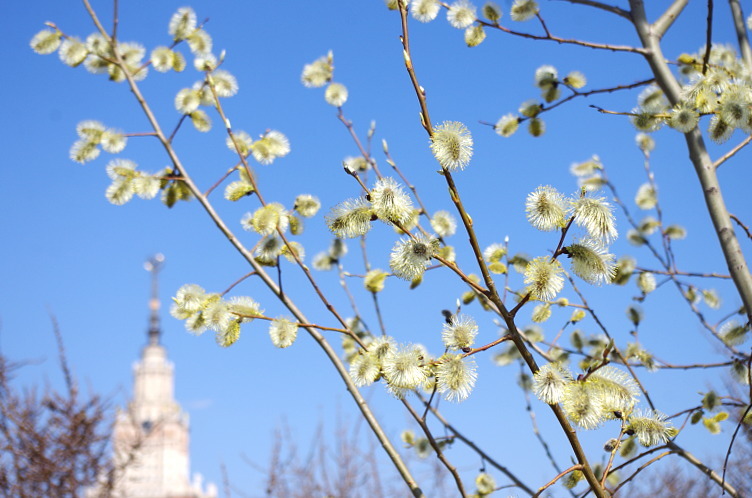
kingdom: Plantae
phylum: Tracheophyta
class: Magnoliopsida
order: Malpighiales
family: Salicaceae
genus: Salix
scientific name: Salix caprea
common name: Goat willow
